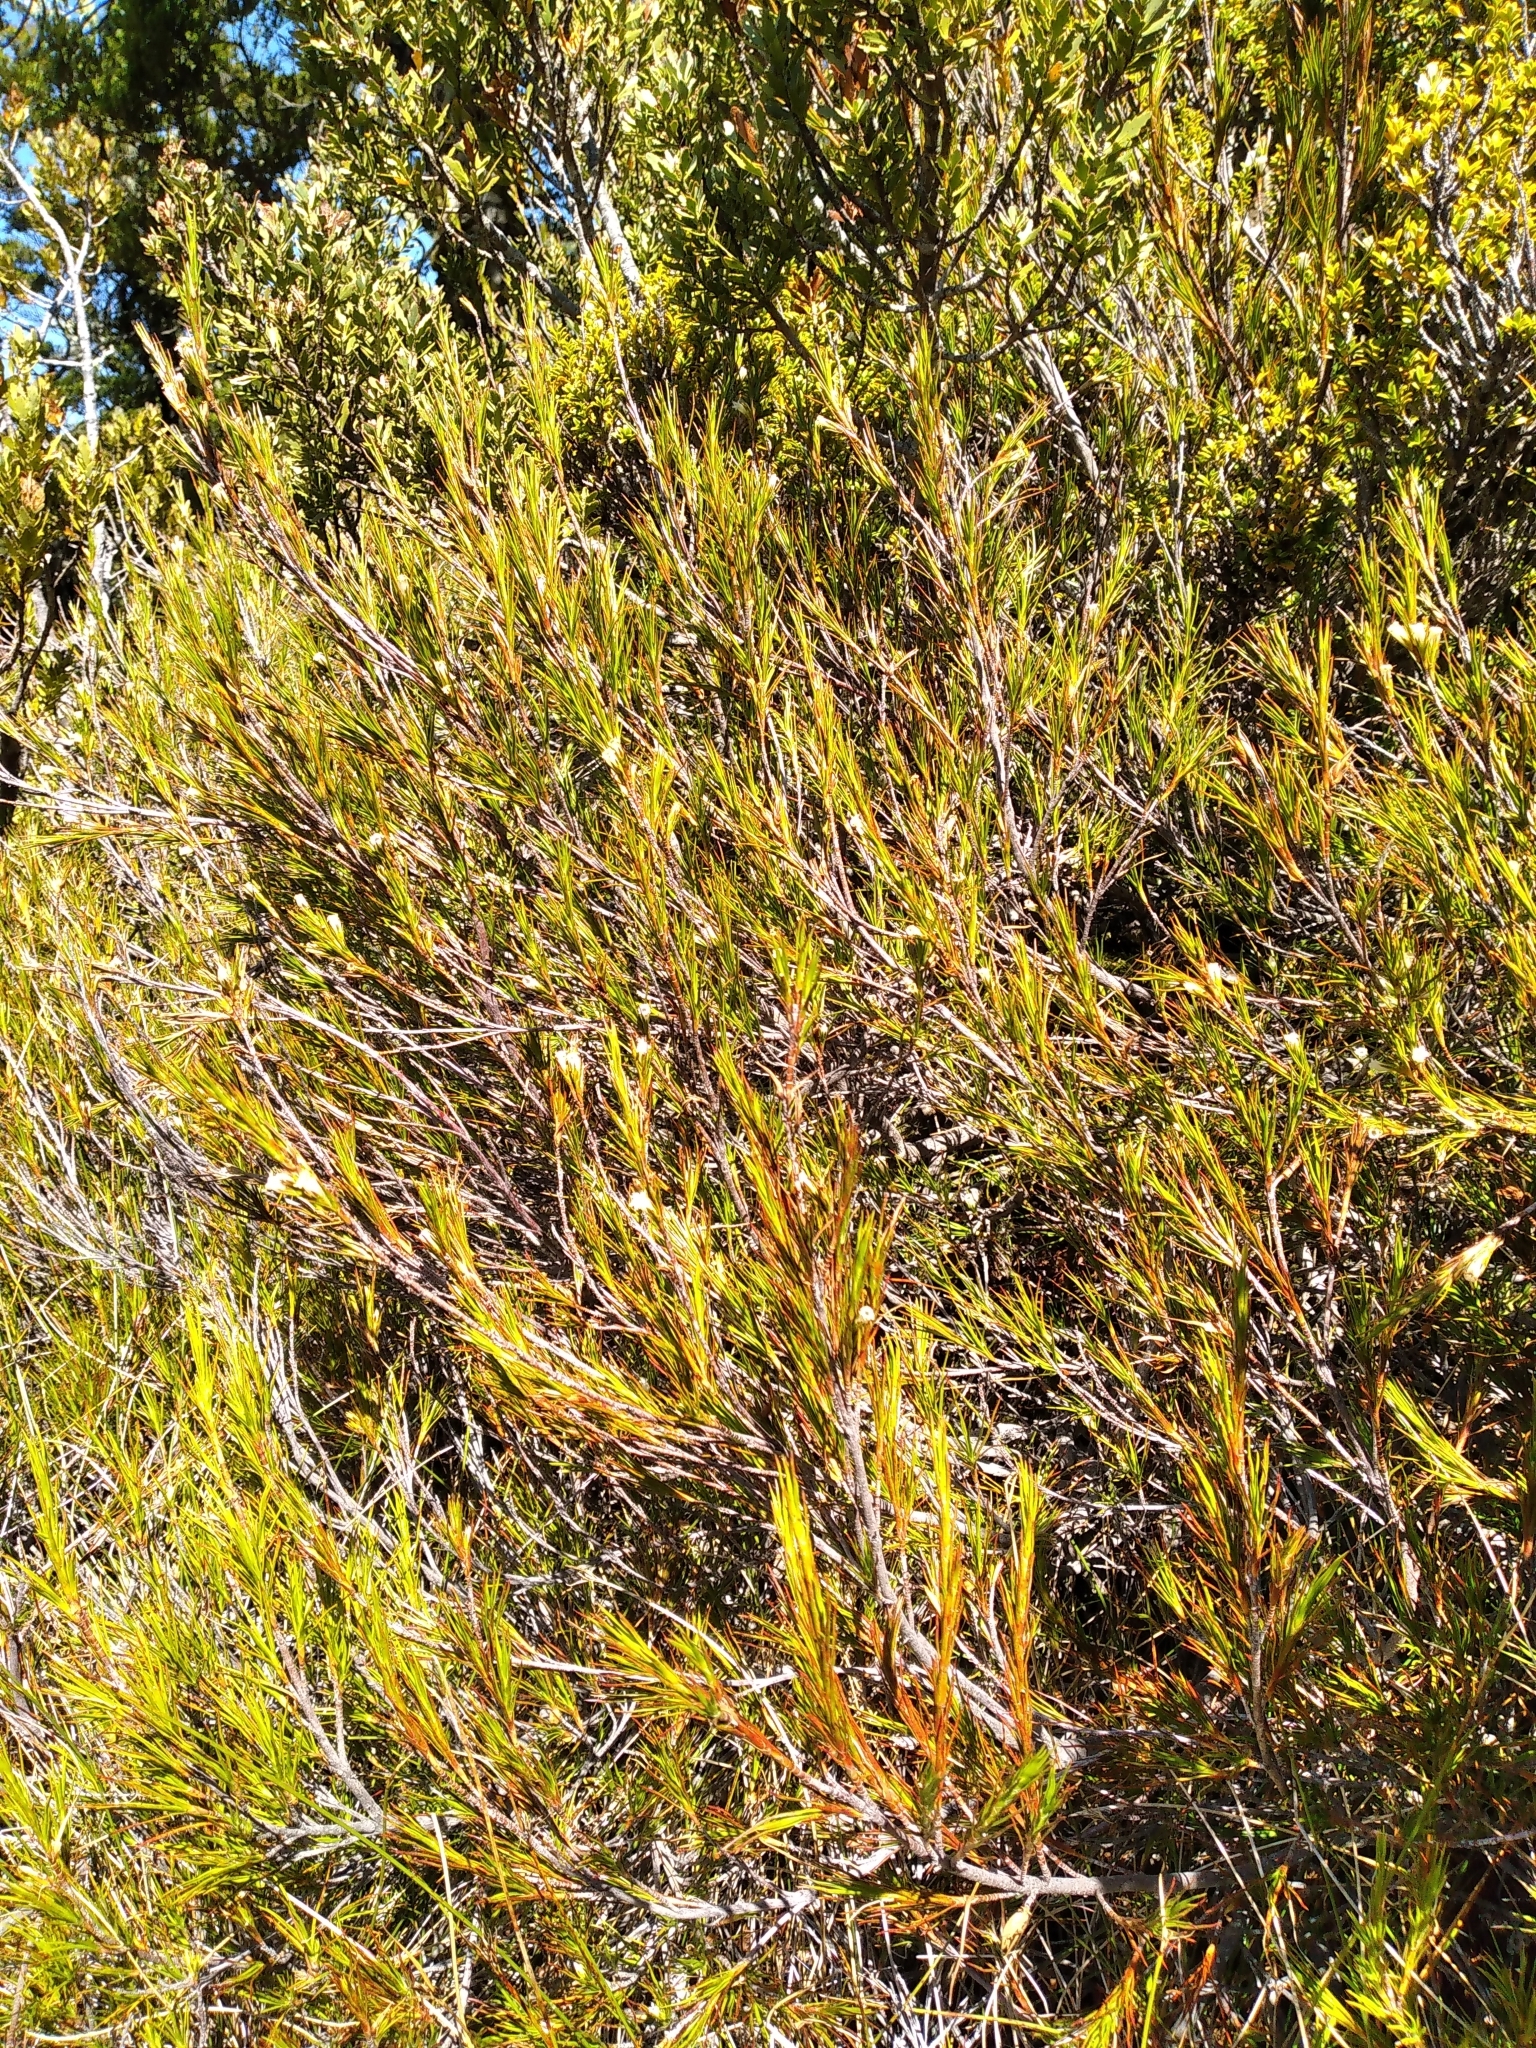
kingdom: Plantae
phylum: Tracheophyta
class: Magnoliopsida
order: Ericales
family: Ericaceae
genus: Dracophyllum
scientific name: Dracophyllum rosmarinifolium
